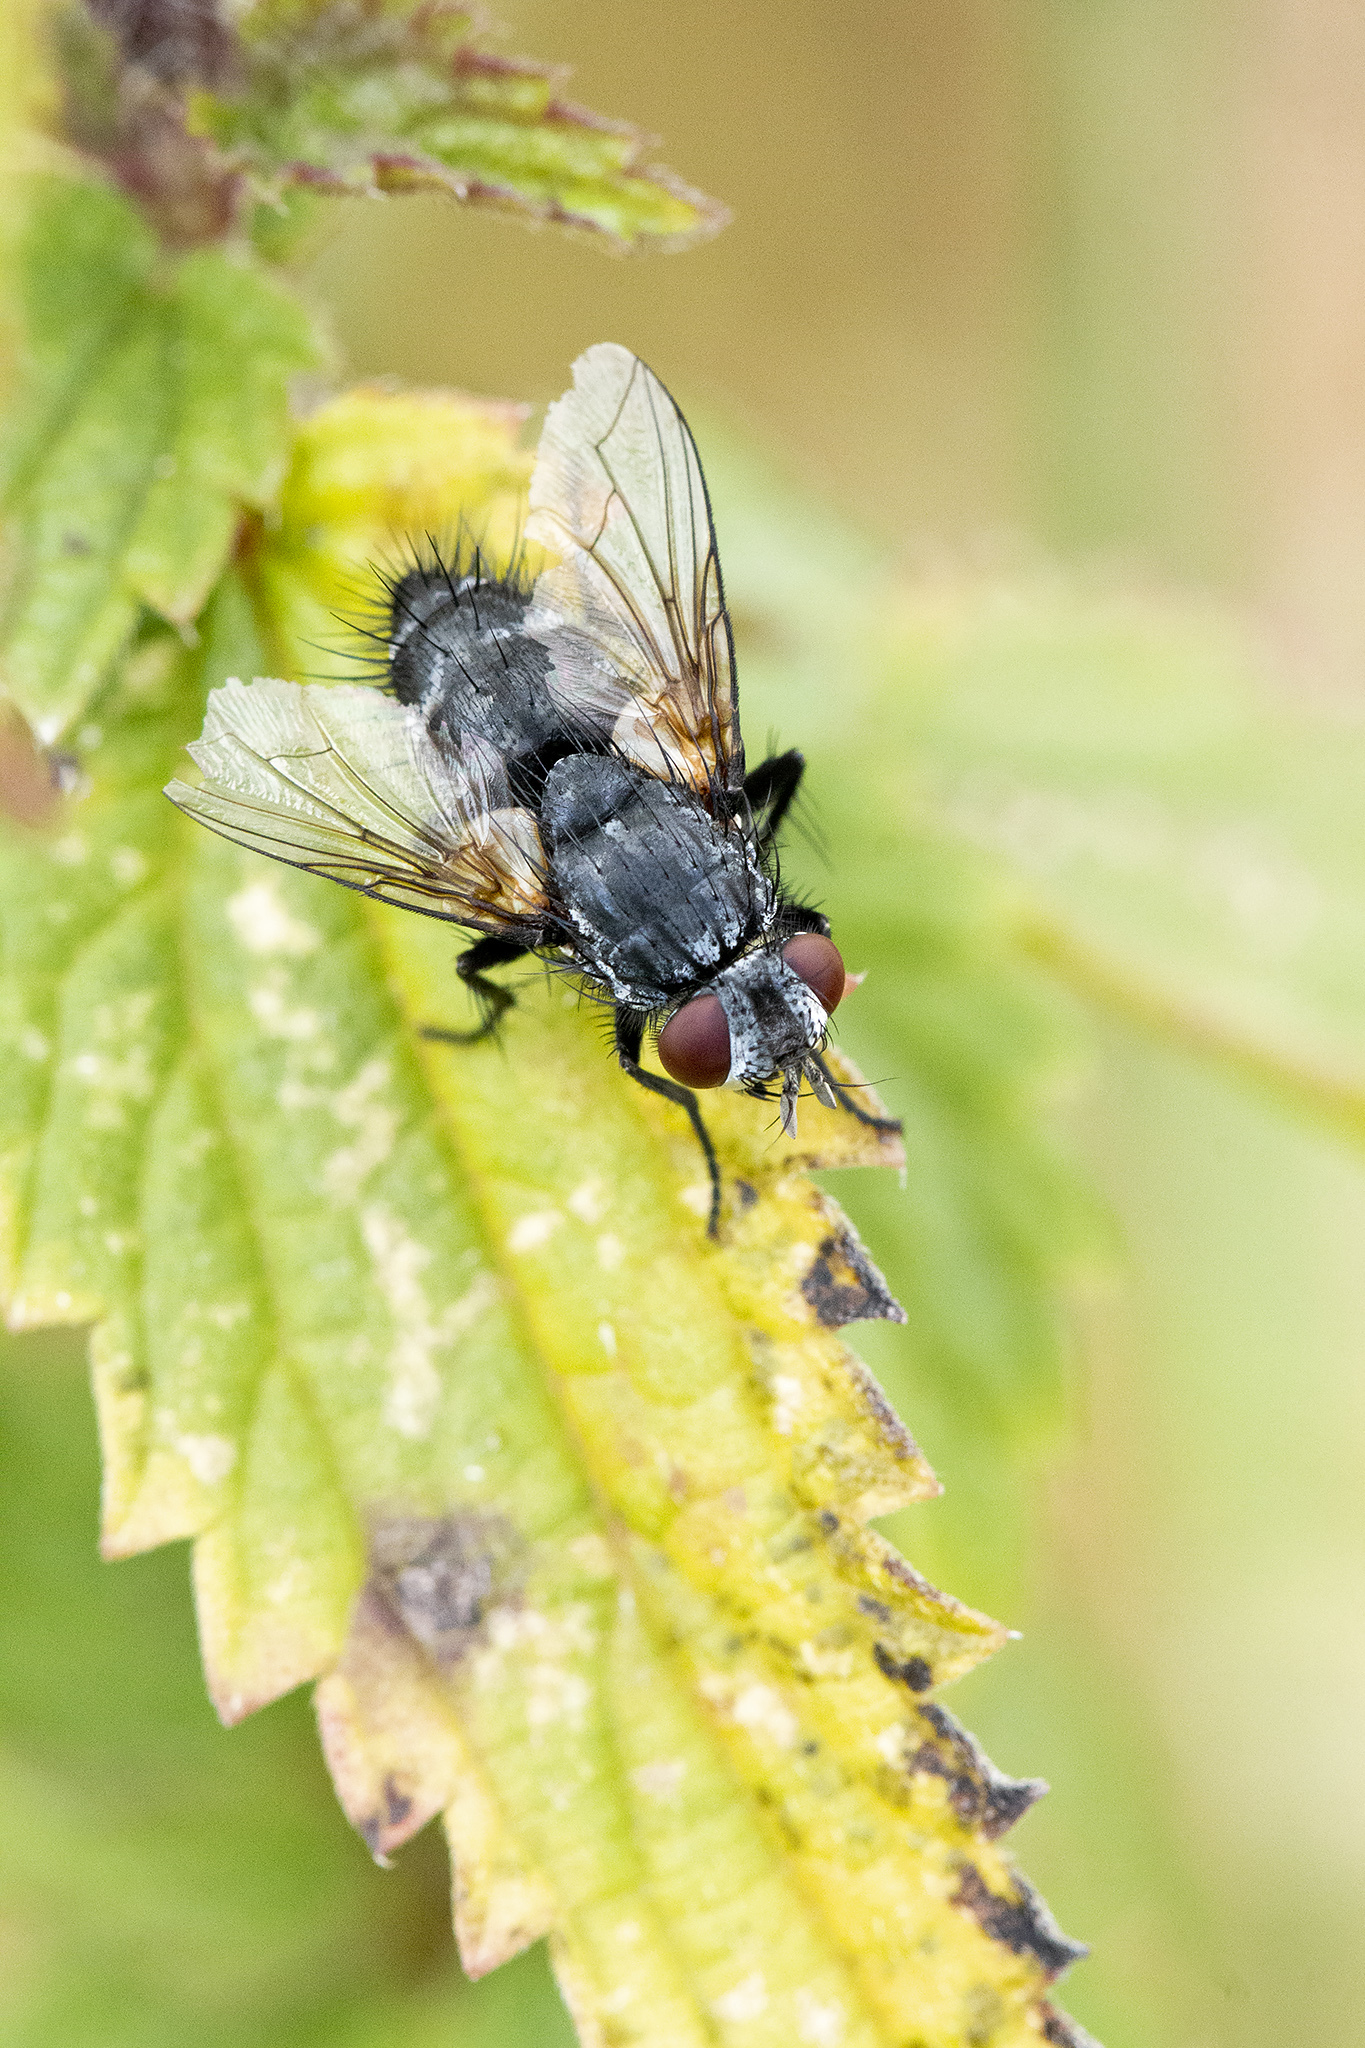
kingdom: Animalia
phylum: Arthropoda
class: Insecta
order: Diptera
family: Tachinidae
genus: Lydella
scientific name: Lydella stabulans
